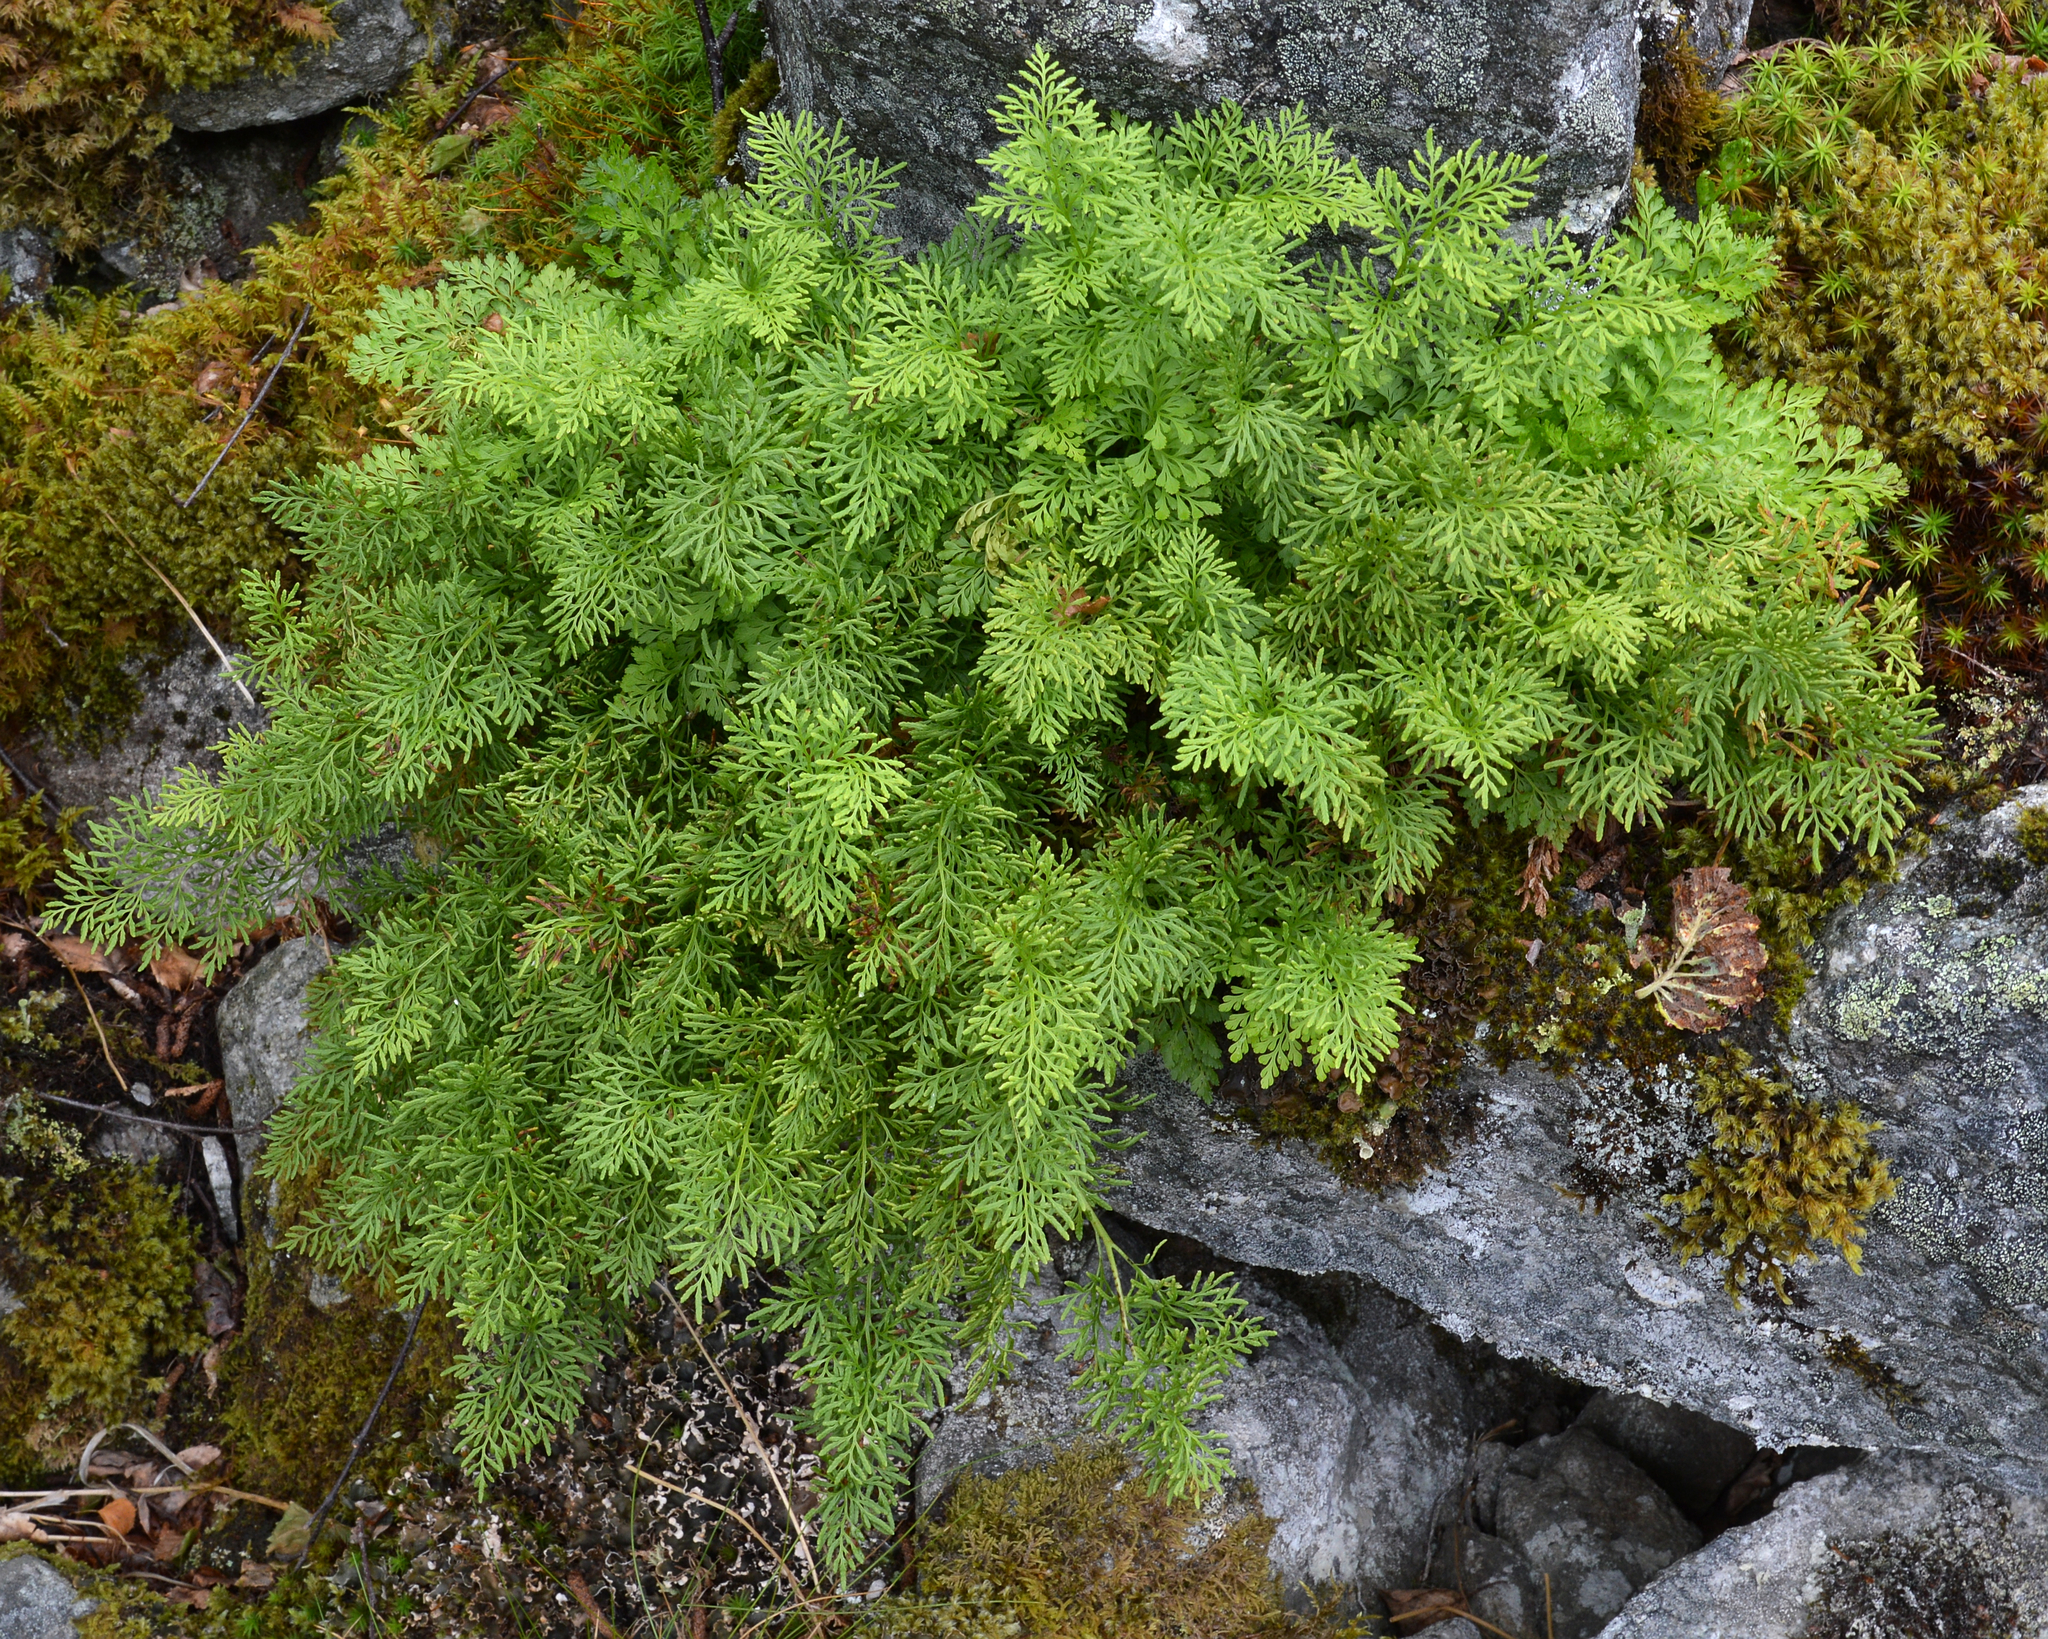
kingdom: Plantae
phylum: Tracheophyta
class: Polypodiopsida
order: Polypodiales
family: Pteridaceae
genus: Cryptogramma
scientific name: Cryptogramma crispa
